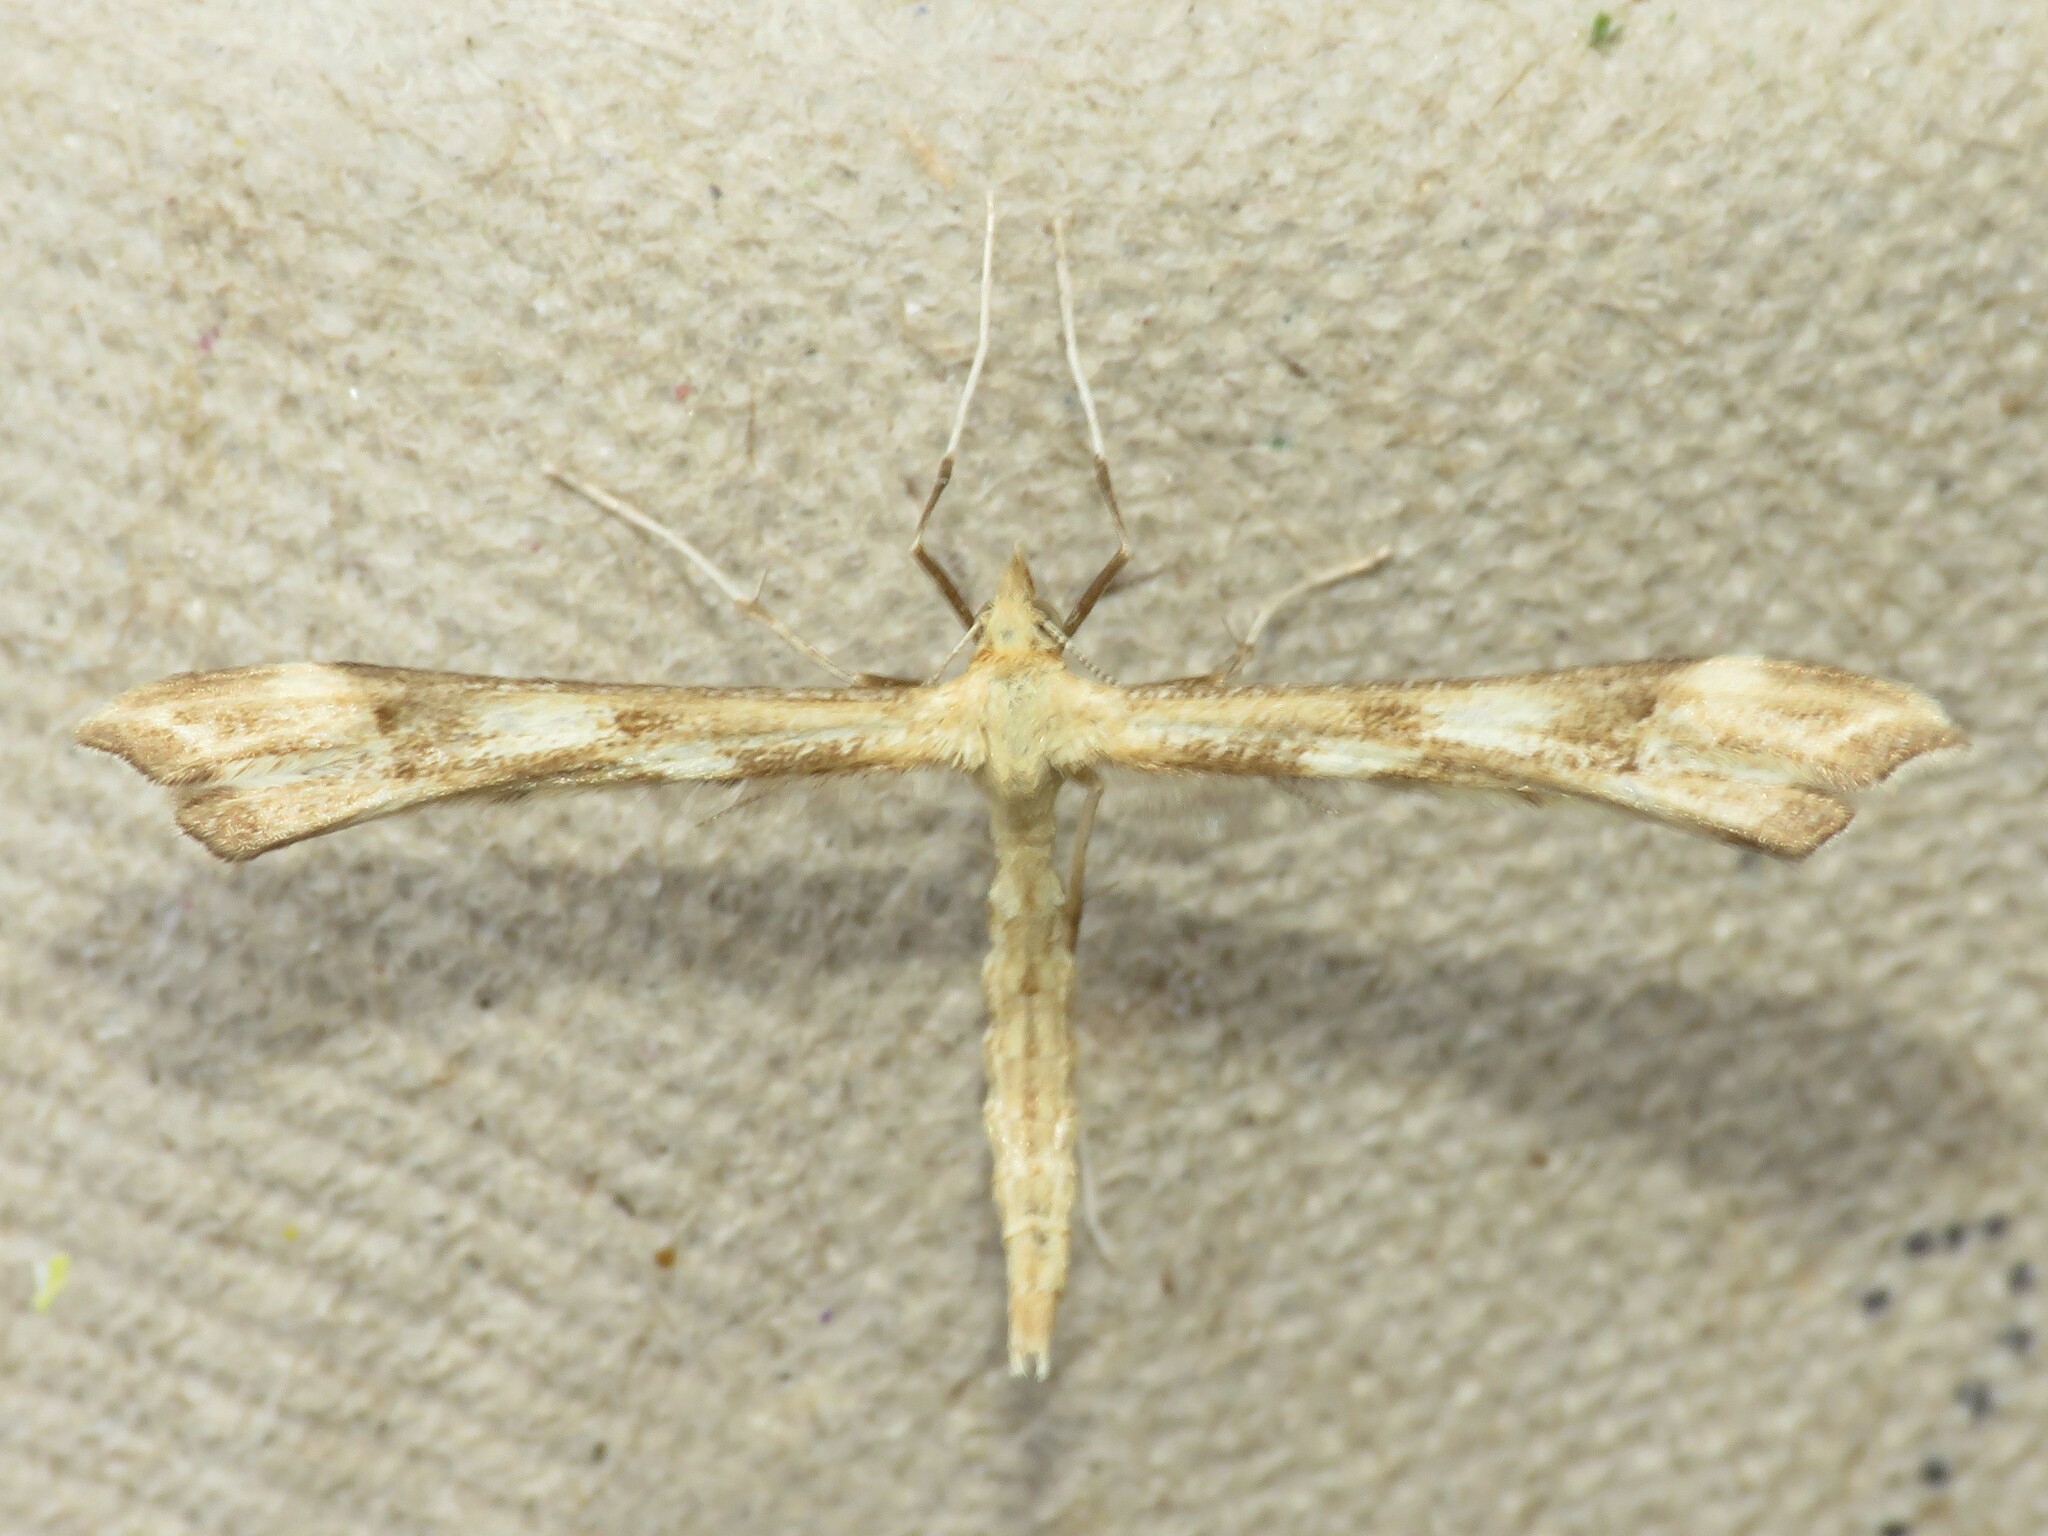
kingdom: Animalia
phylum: Arthropoda
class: Insecta
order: Lepidoptera
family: Pterophoridae
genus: Gillmeria
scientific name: Gillmeria pallidactyla
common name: Yarrow plume
